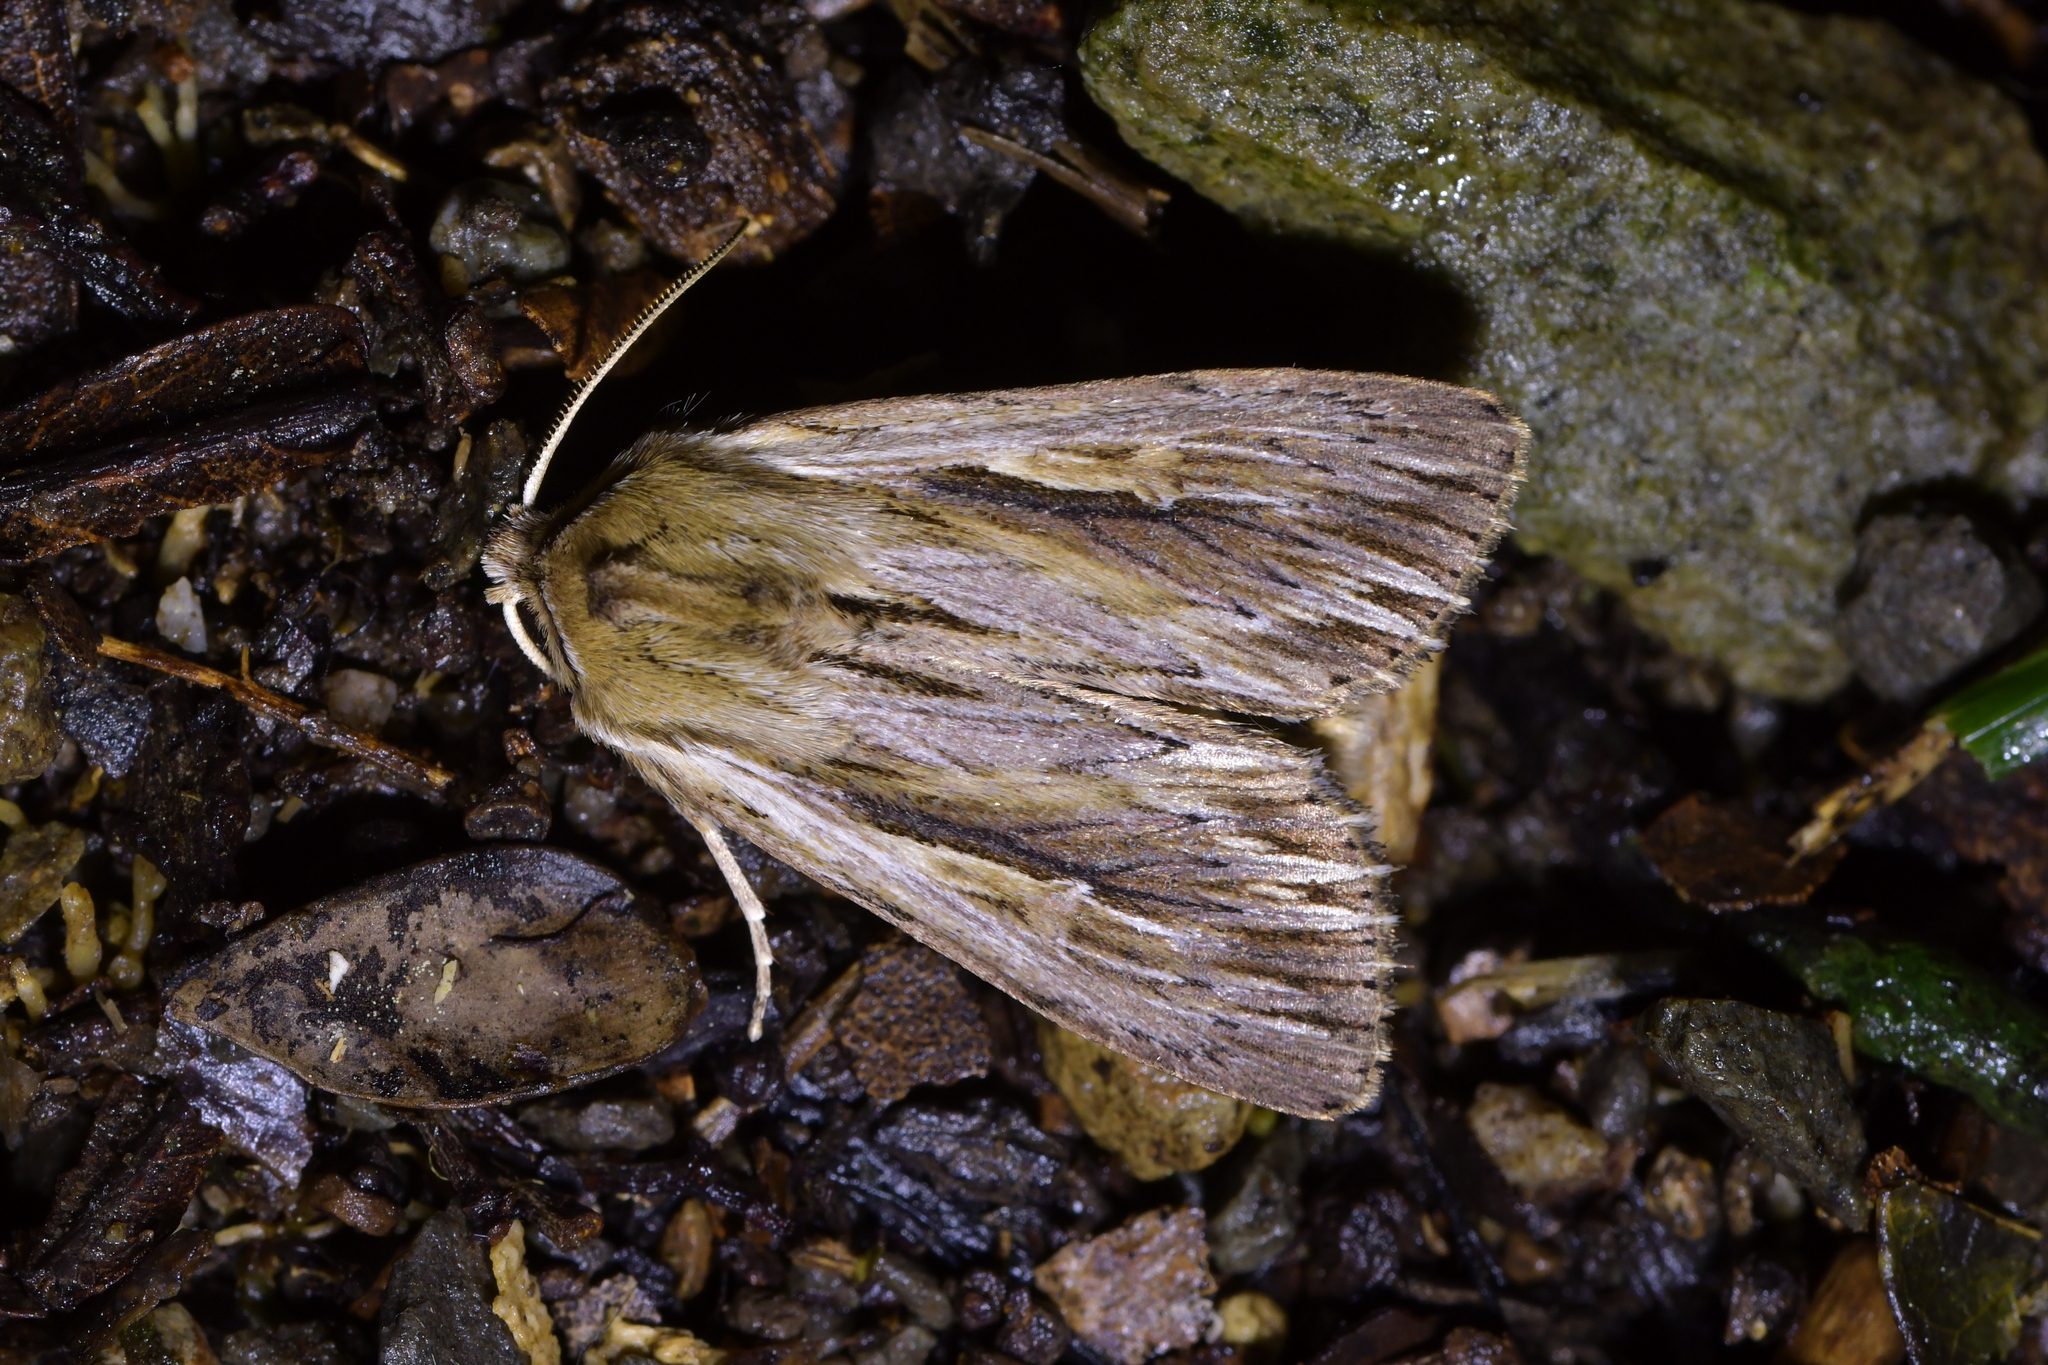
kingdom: Animalia
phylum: Arthropoda
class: Insecta
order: Lepidoptera
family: Noctuidae
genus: Persectania
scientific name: Persectania aversa
